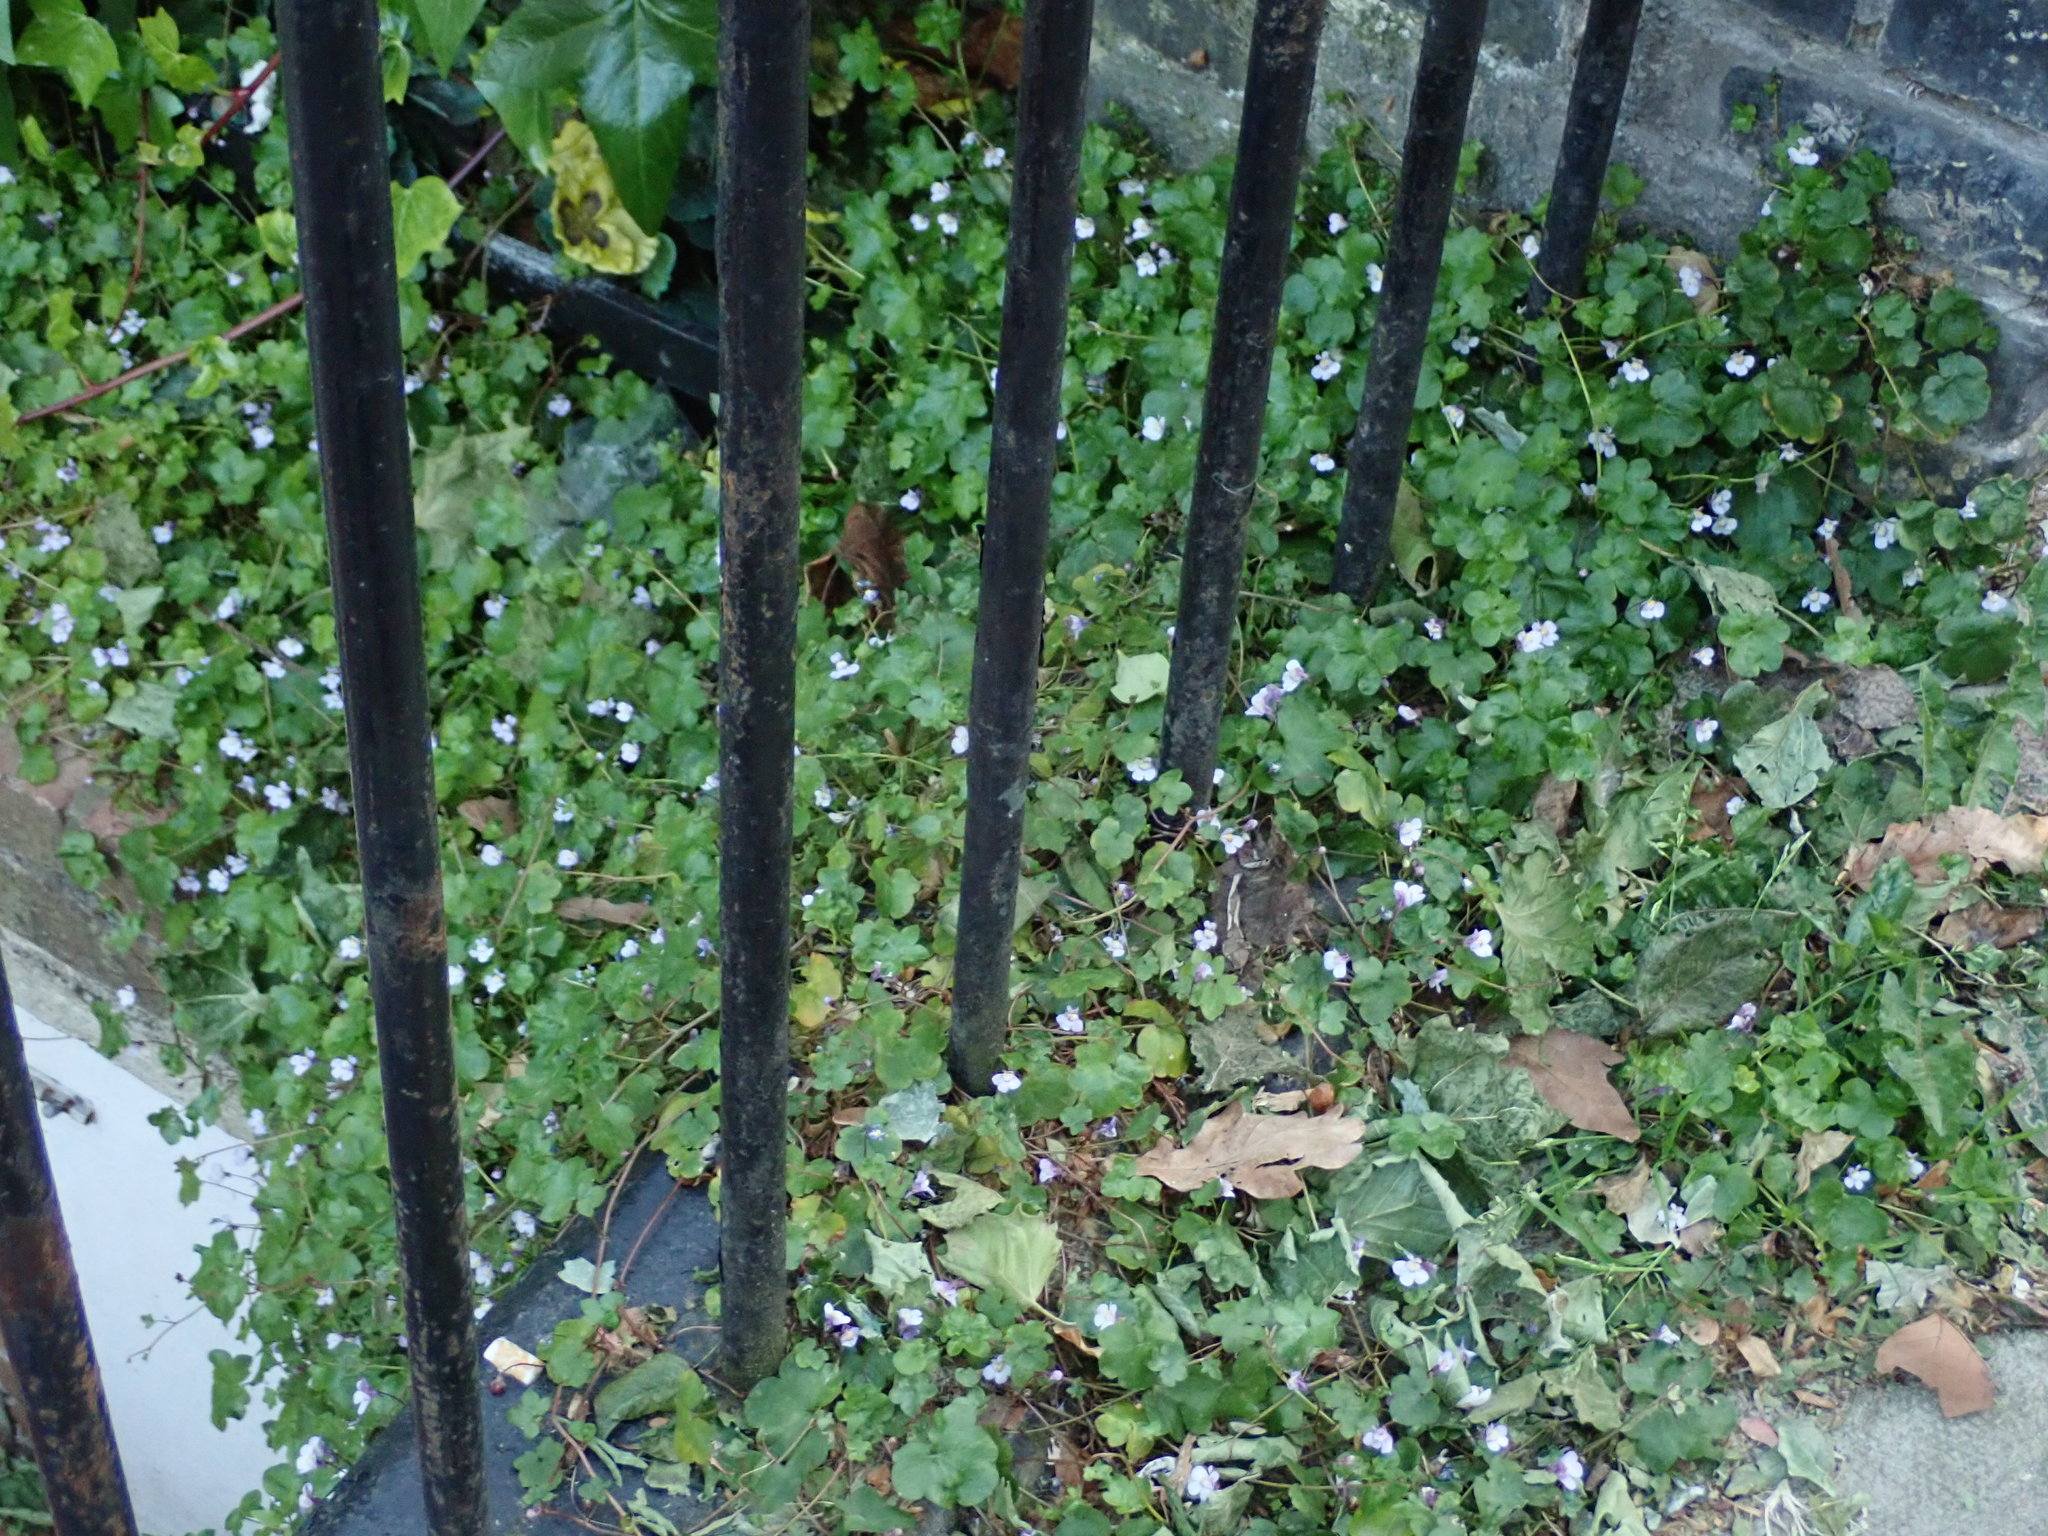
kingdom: Plantae
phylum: Tracheophyta
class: Magnoliopsida
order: Lamiales
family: Plantaginaceae
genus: Cymbalaria
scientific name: Cymbalaria muralis
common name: Ivy-leaved toadflax
